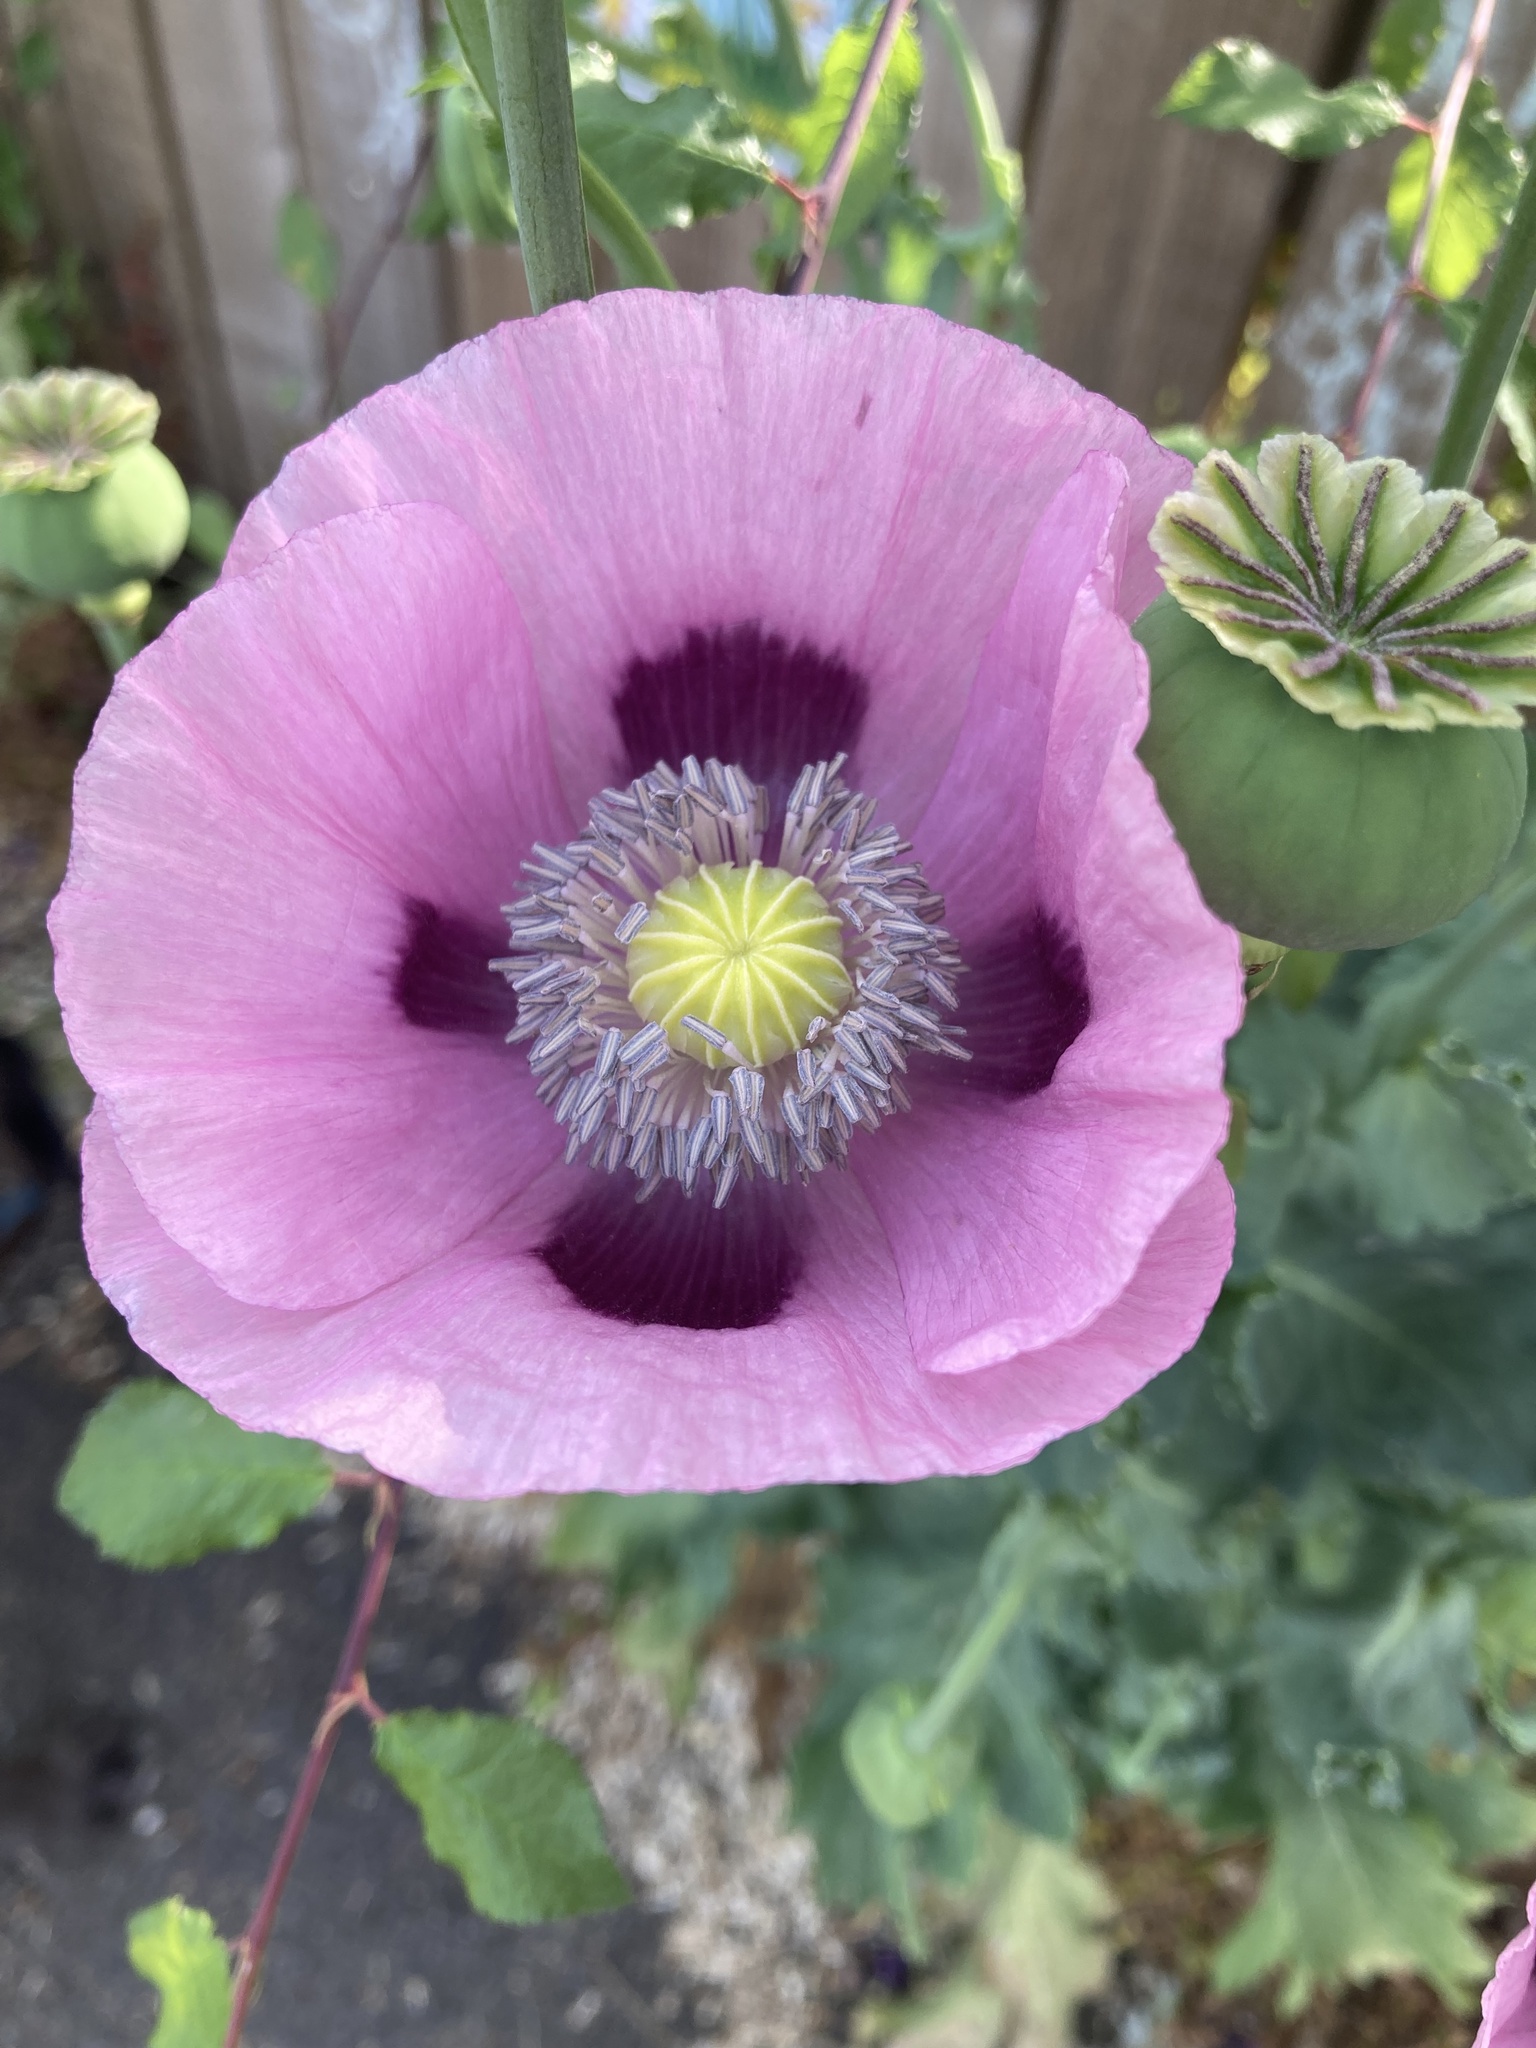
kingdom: Plantae
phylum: Tracheophyta
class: Magnoliopsida
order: Ranunculales
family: Papaveraceae
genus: Papaver
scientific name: Papaver somniferum
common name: Opium poppy
